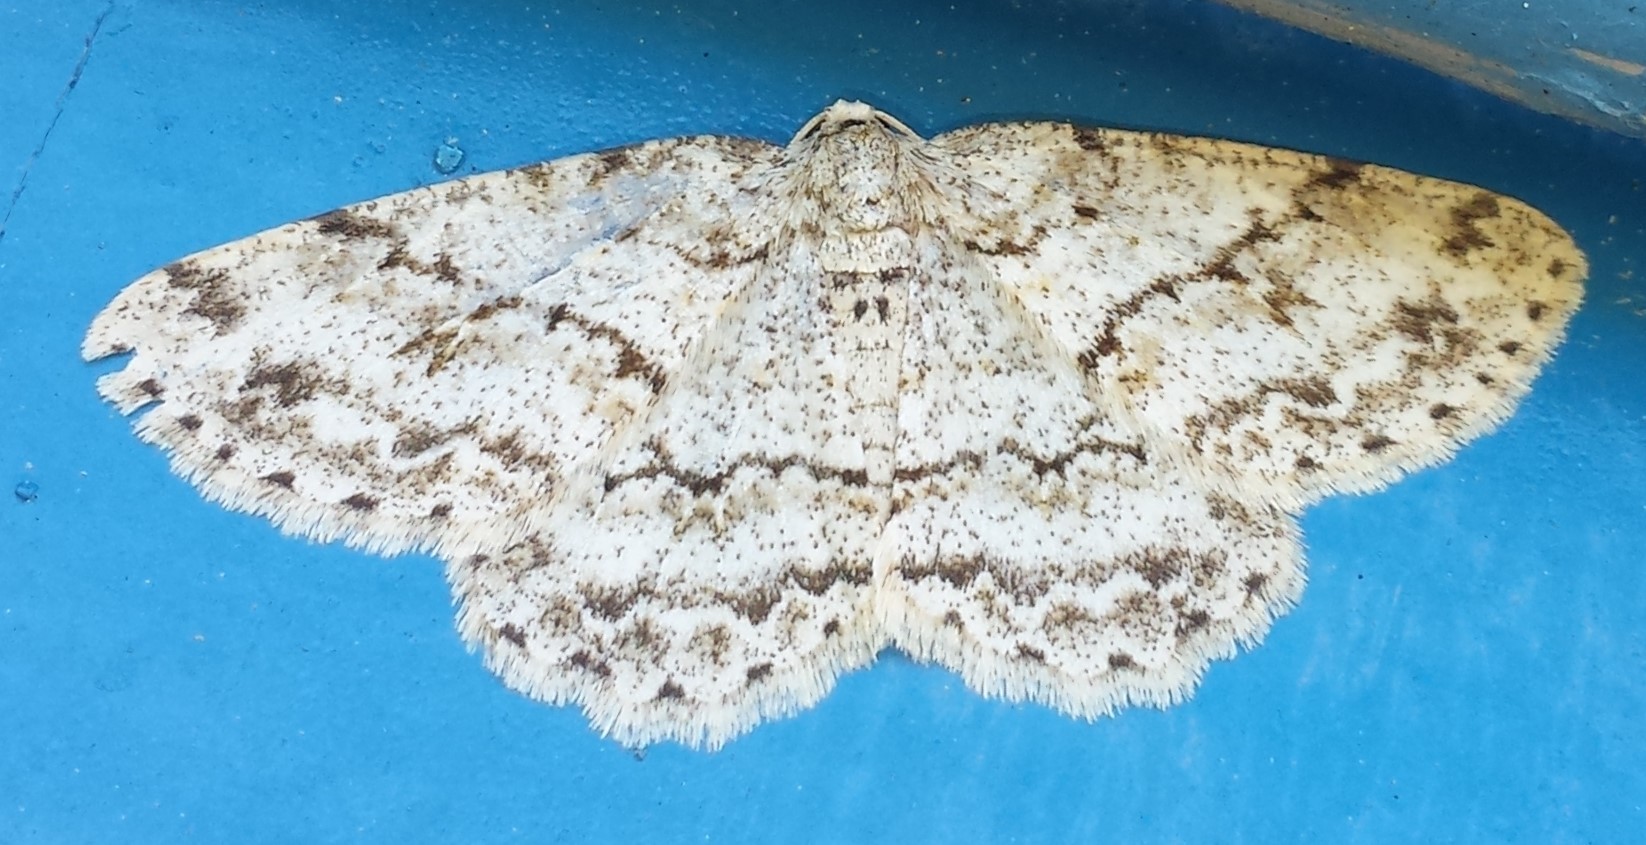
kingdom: Animalia
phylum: Arthropoda
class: Insecta
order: Lepidoptera
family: Geometridae
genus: Ectropis
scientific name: Ectropis crepuscularia
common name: Engrailed
